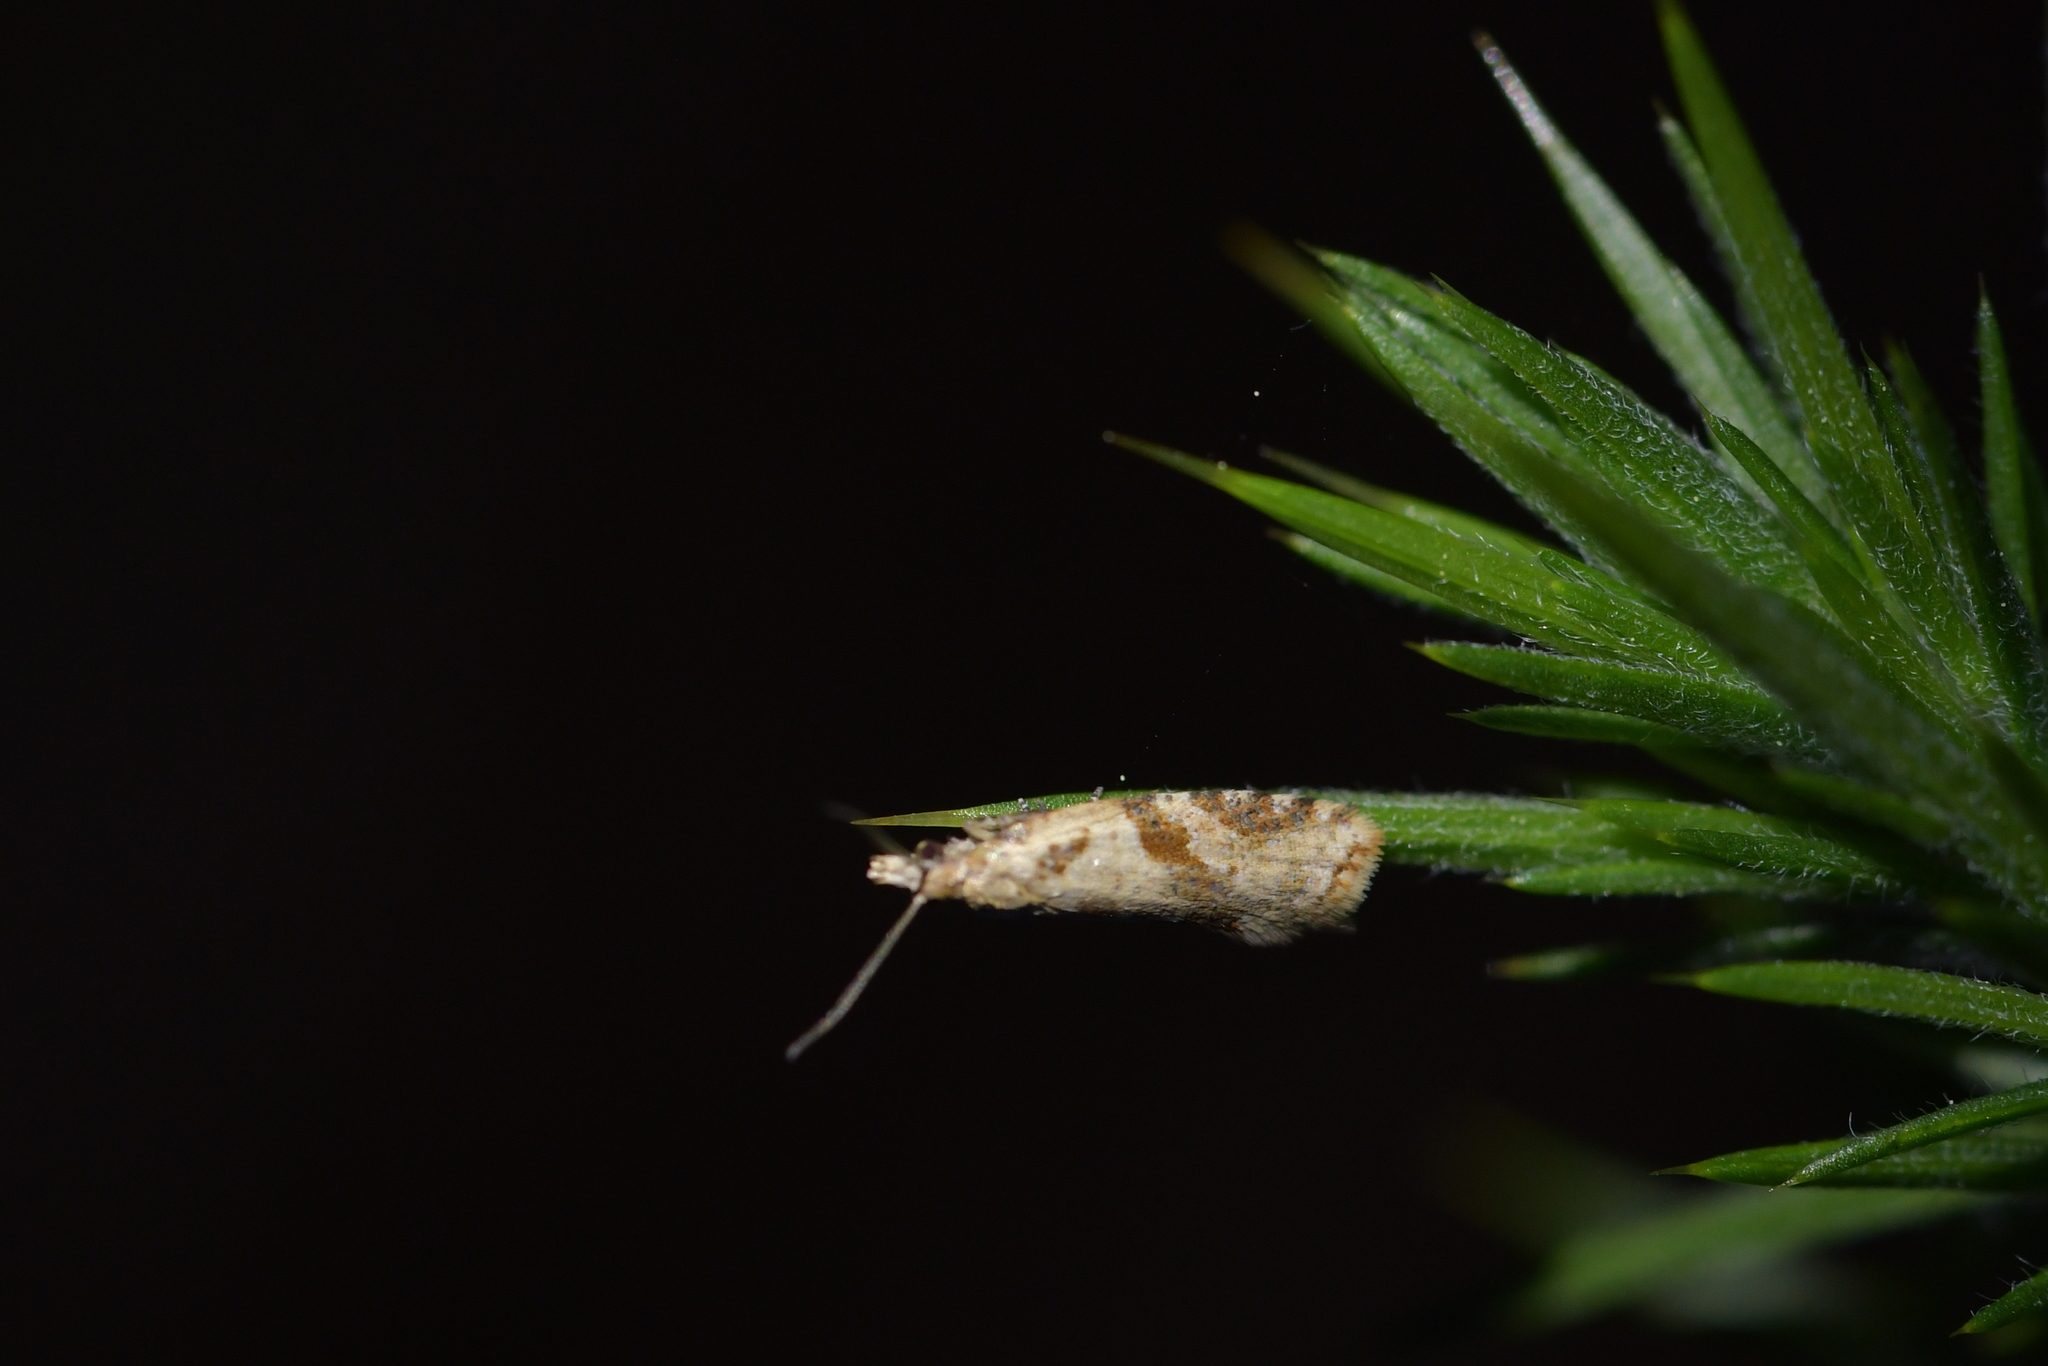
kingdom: Animalia
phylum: Arthropoda
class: Insecta
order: Lepidoptera
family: Tortricidae
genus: Capua
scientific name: Capua semiferana
